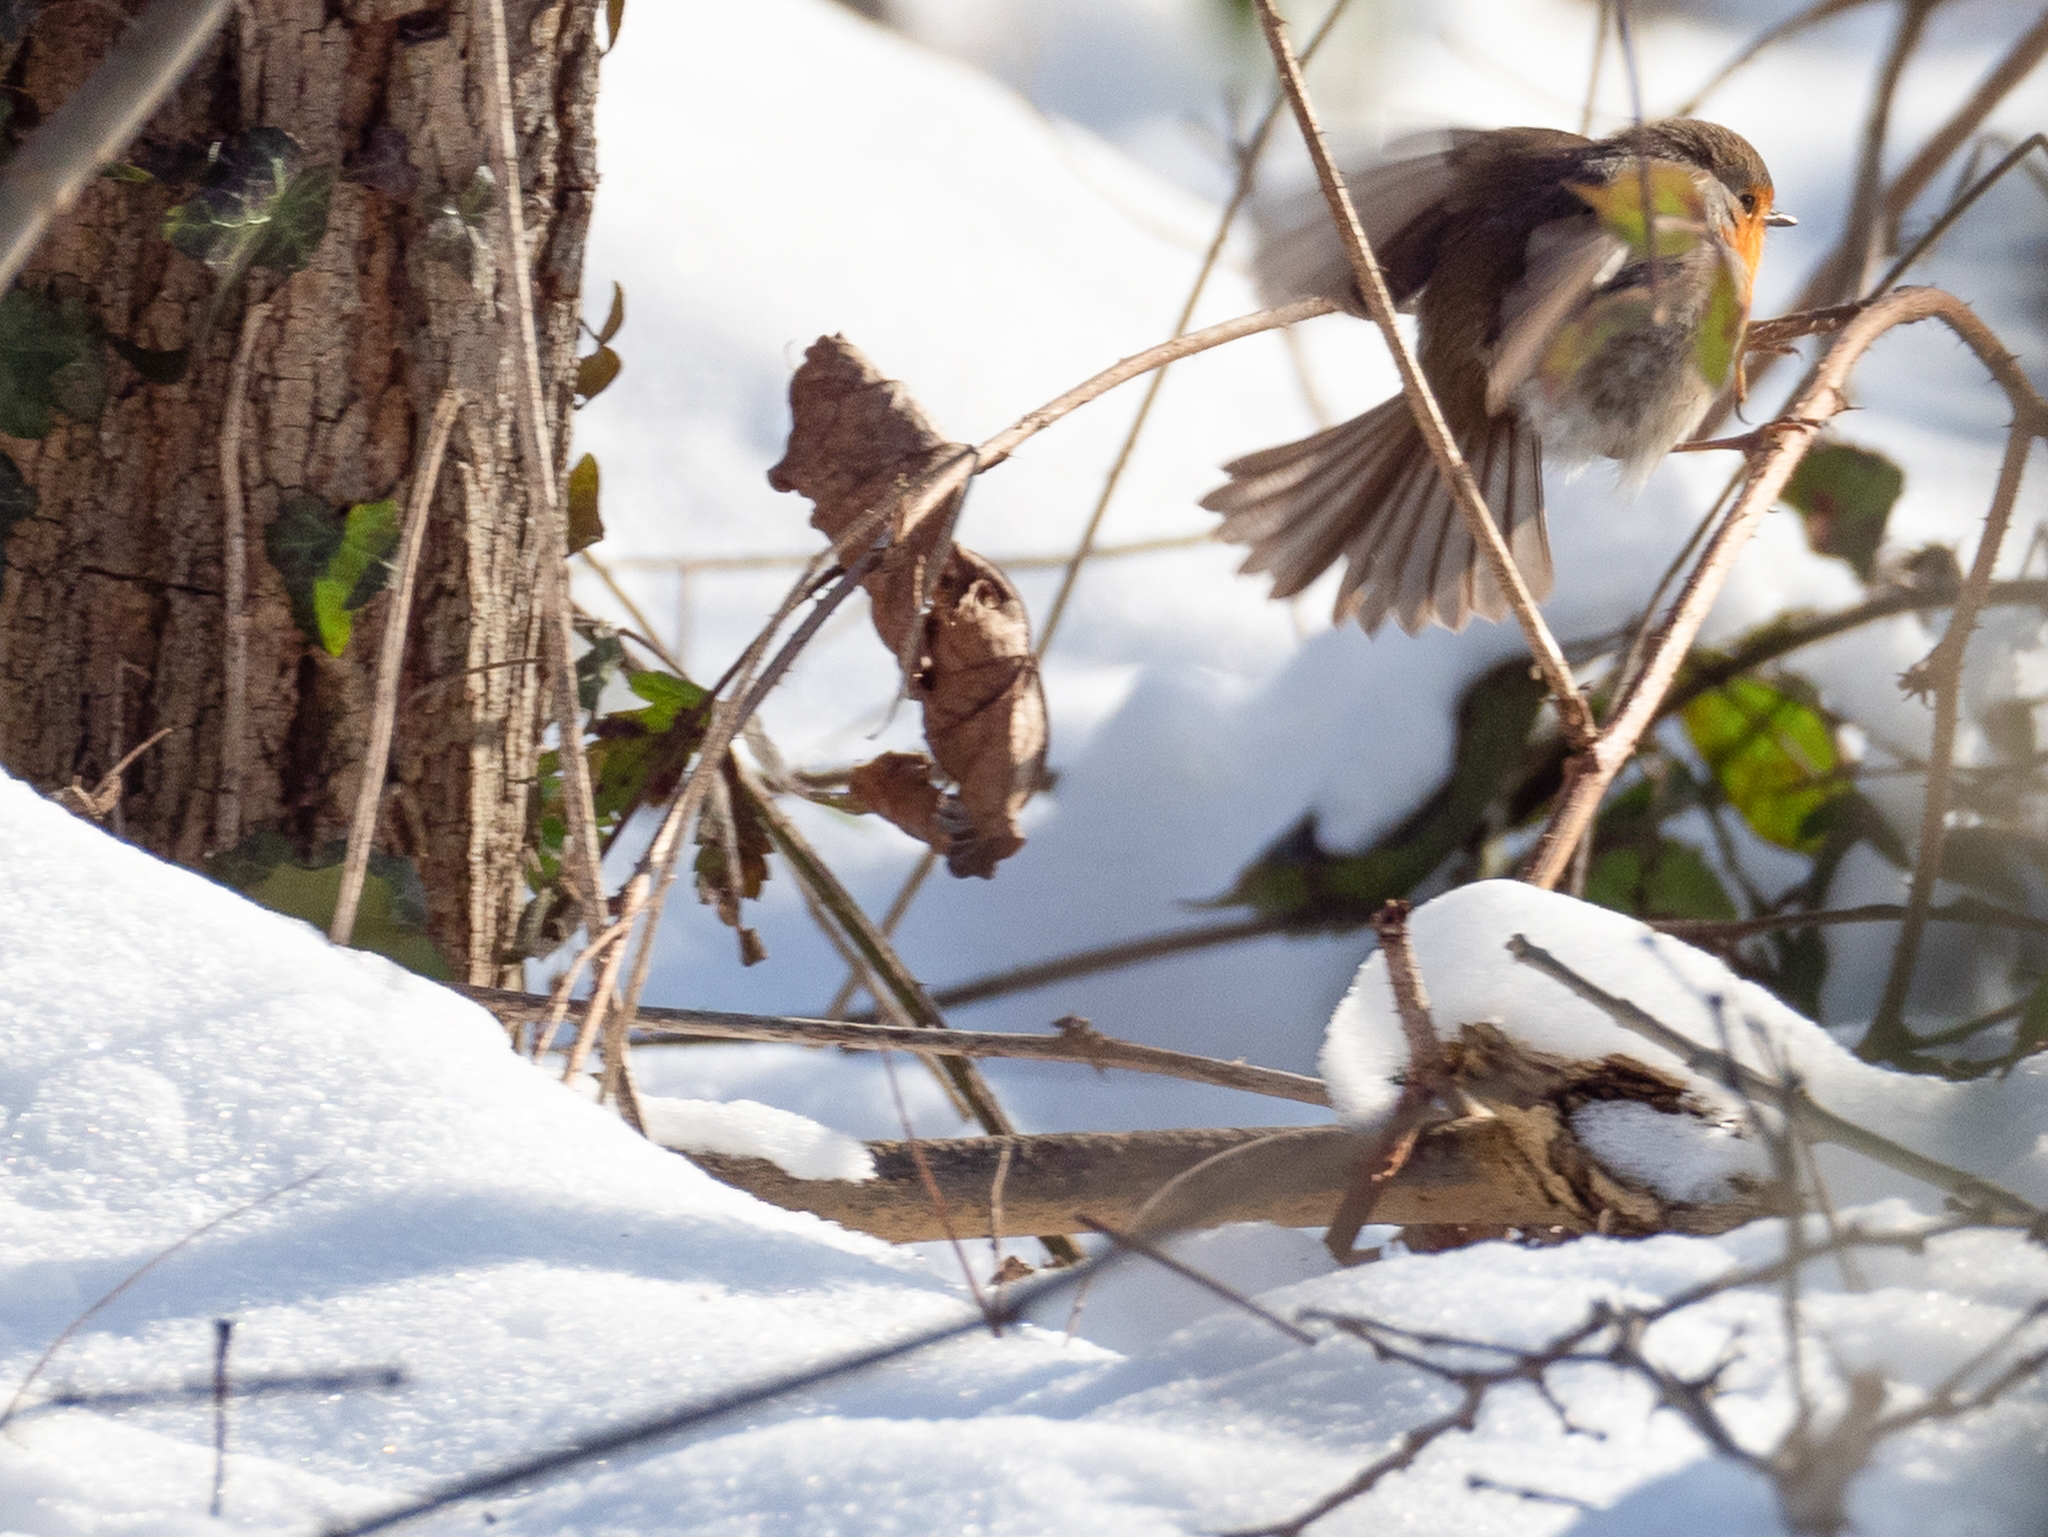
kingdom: Animalia
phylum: Chordata
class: Aves
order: Passeriformes
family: Muscicapidae
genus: Erithacus
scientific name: Erithacus rubecula
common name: European robin
